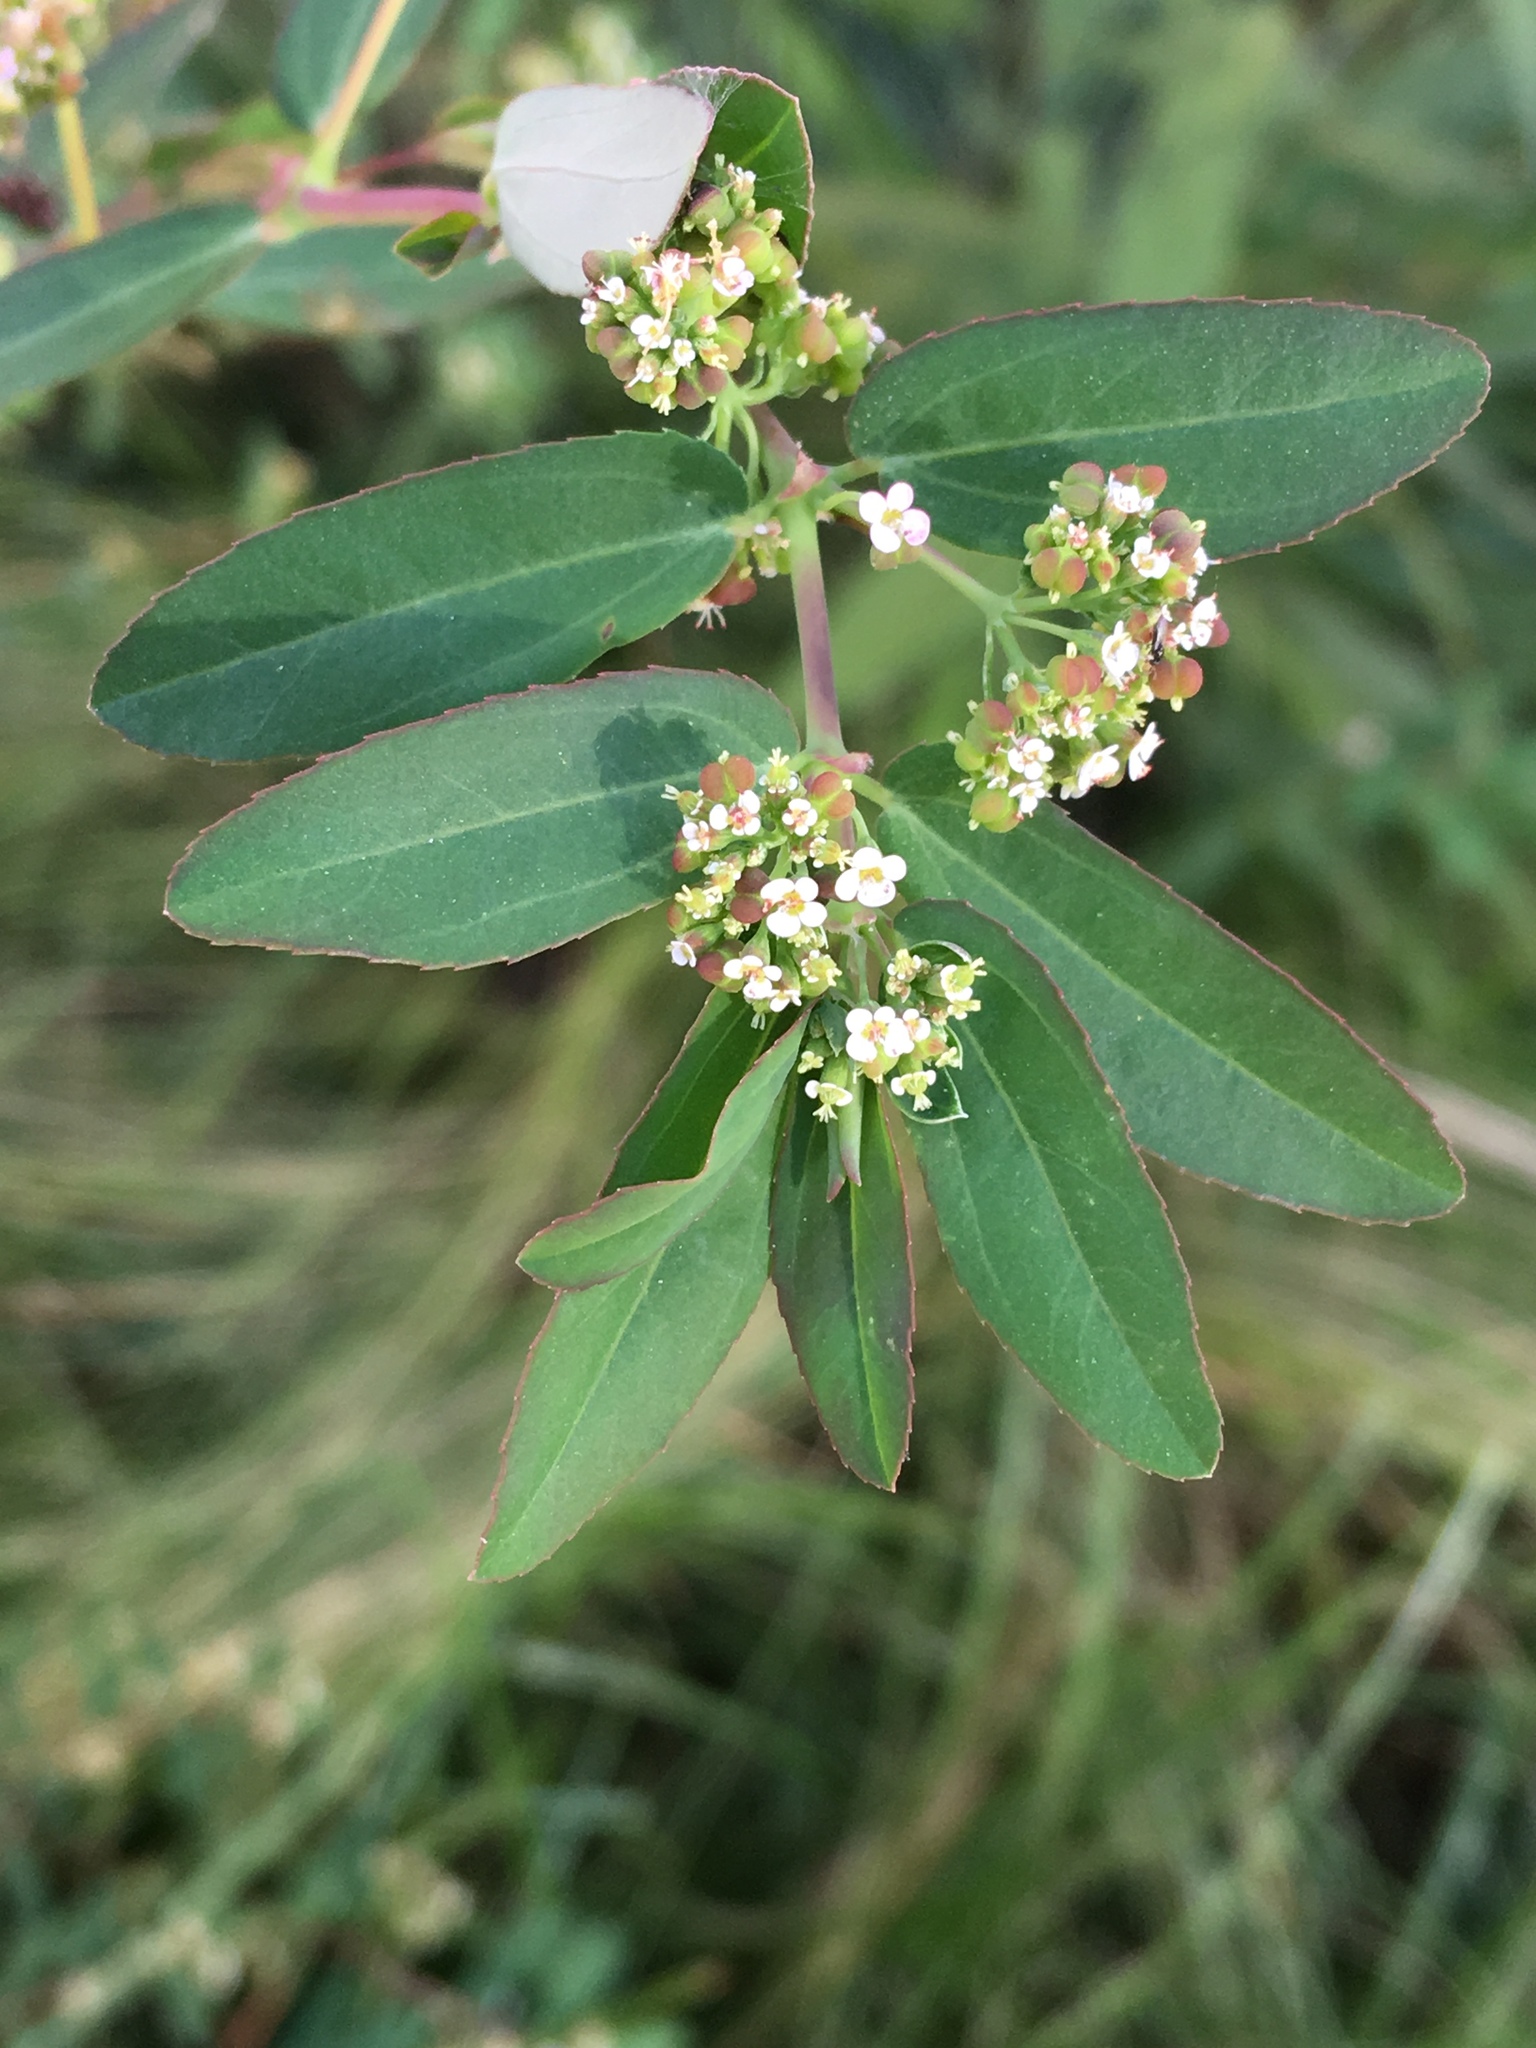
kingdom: Plantae
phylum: Tracheophyta
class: Magnoliopsida
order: Malpighiales
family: Euphorbiaceae
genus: Euphorbia
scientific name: Euphorbia hypericifolia
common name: Graceful sandmat
